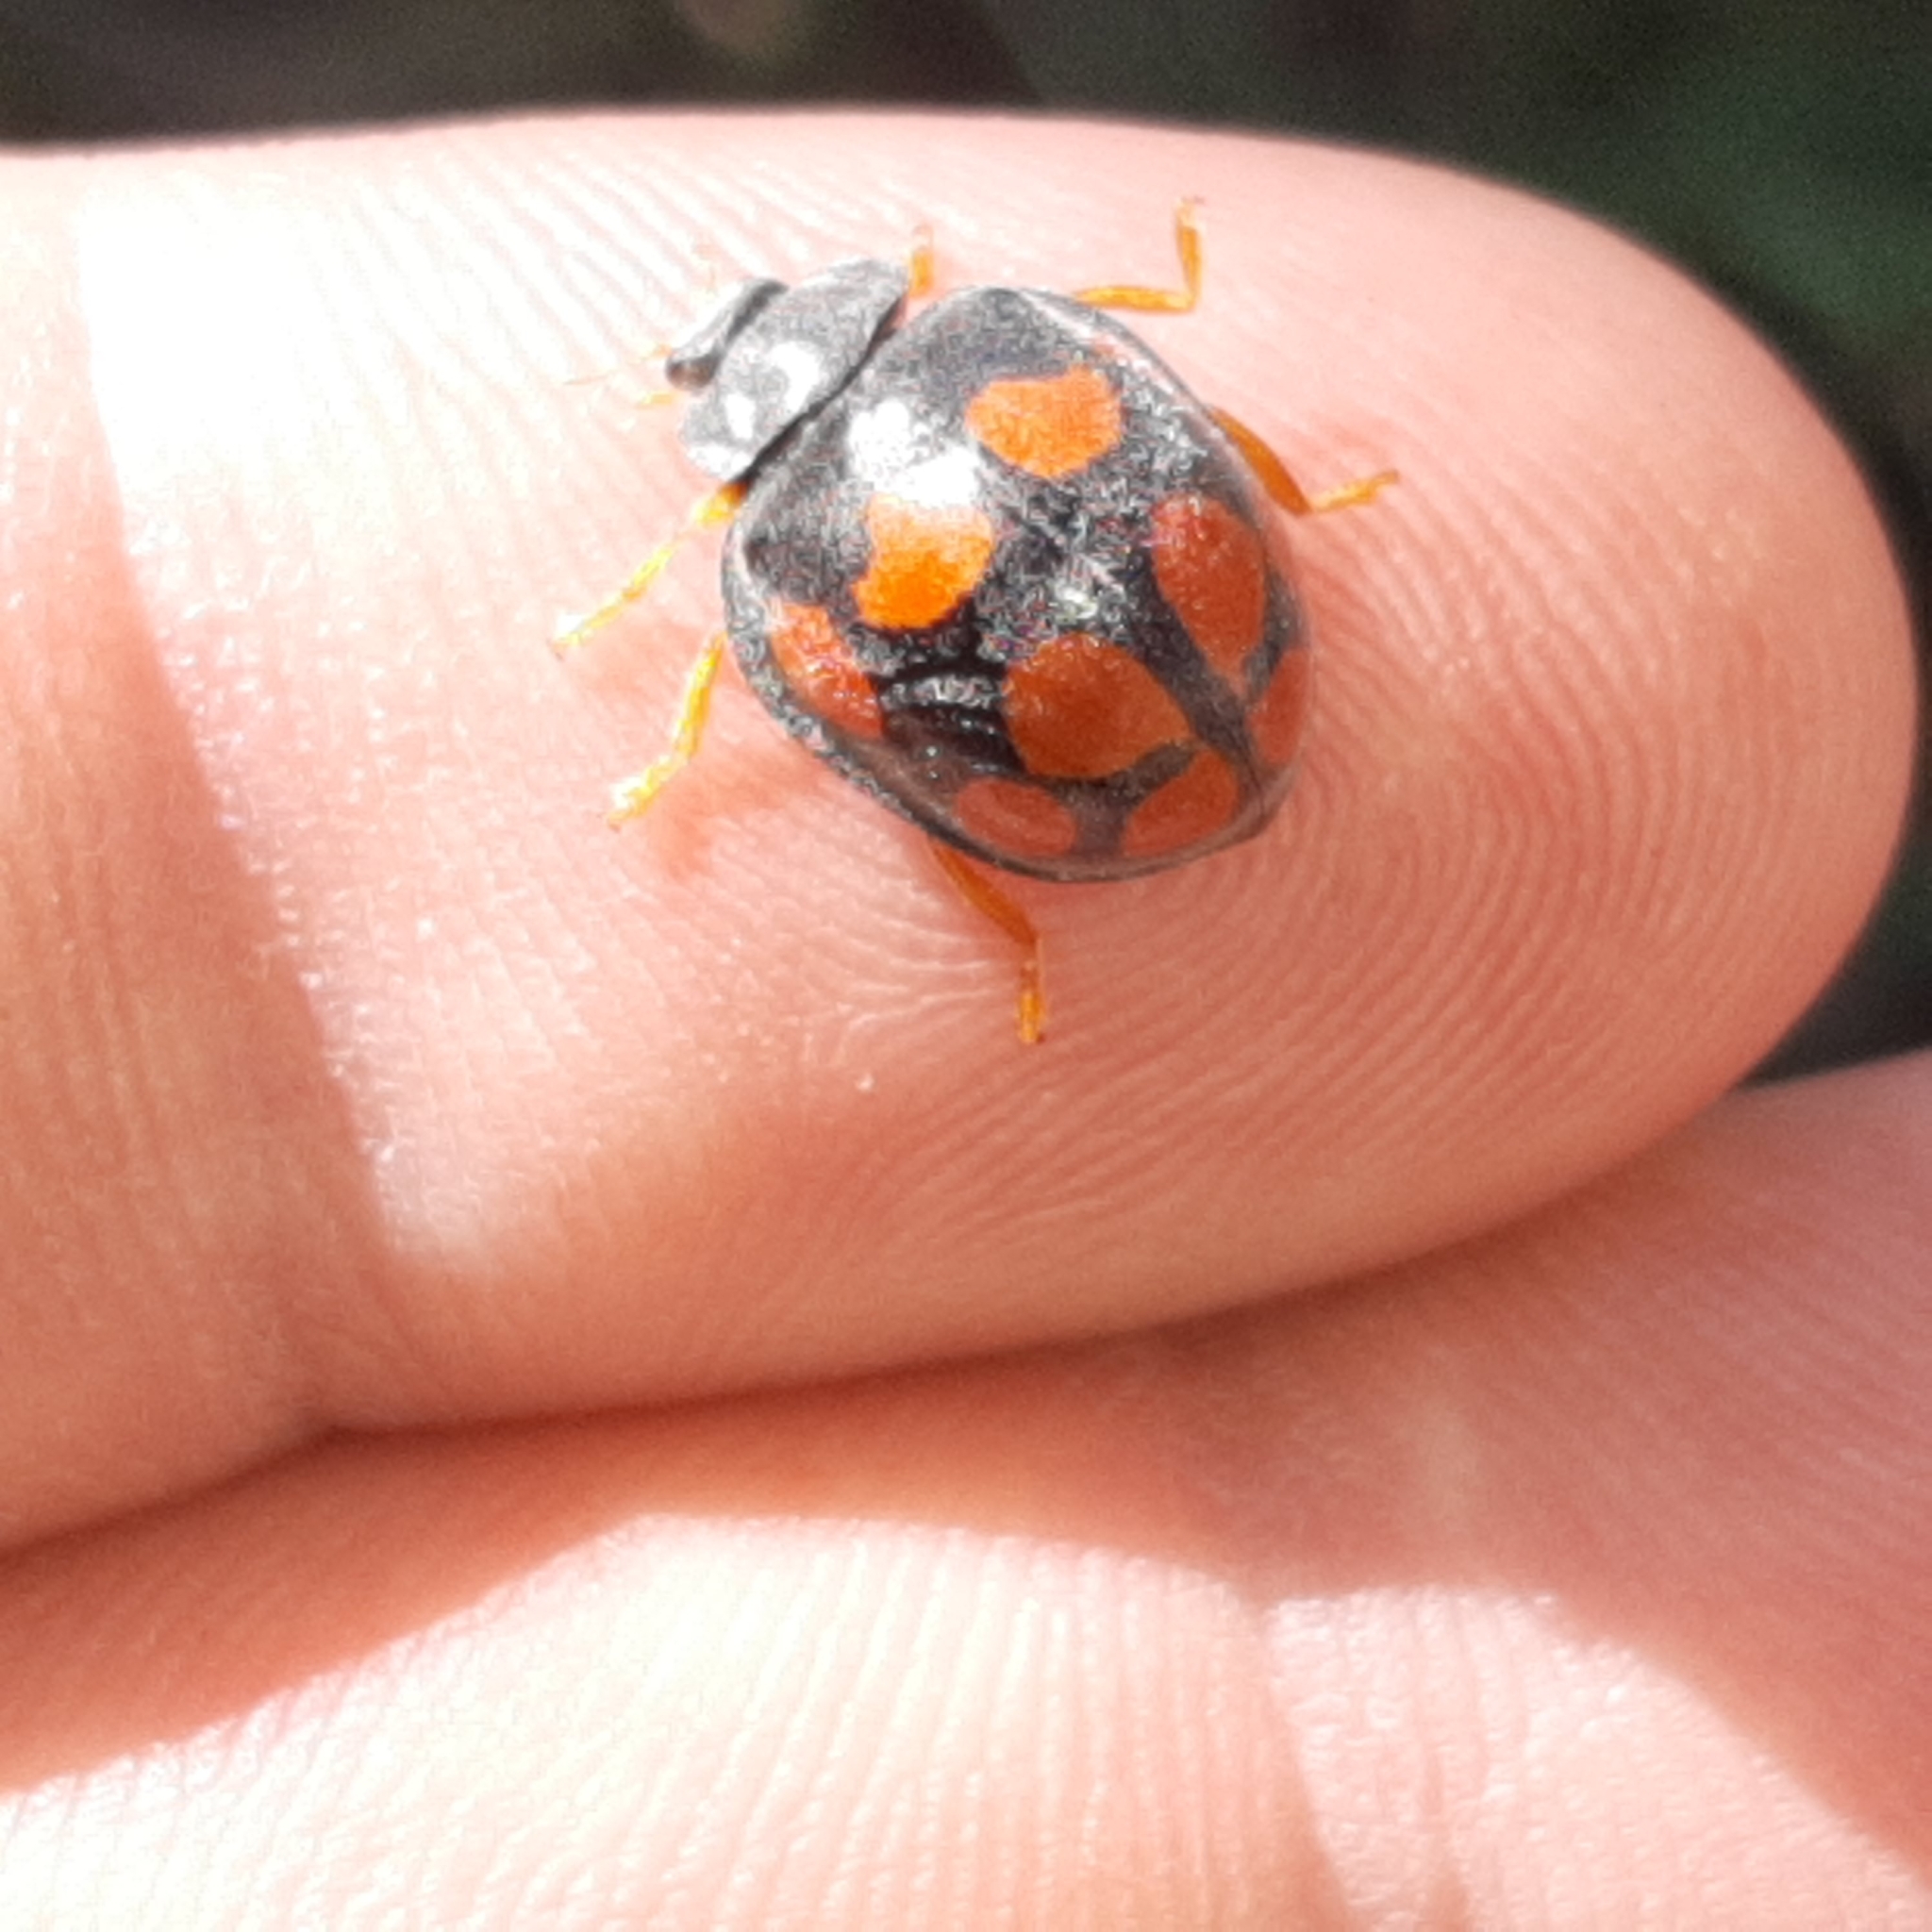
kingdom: Animalia
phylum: Arthropoda
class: Insecta
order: Coleoptera
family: Coccinellidae
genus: Epilachna
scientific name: Epilachna
